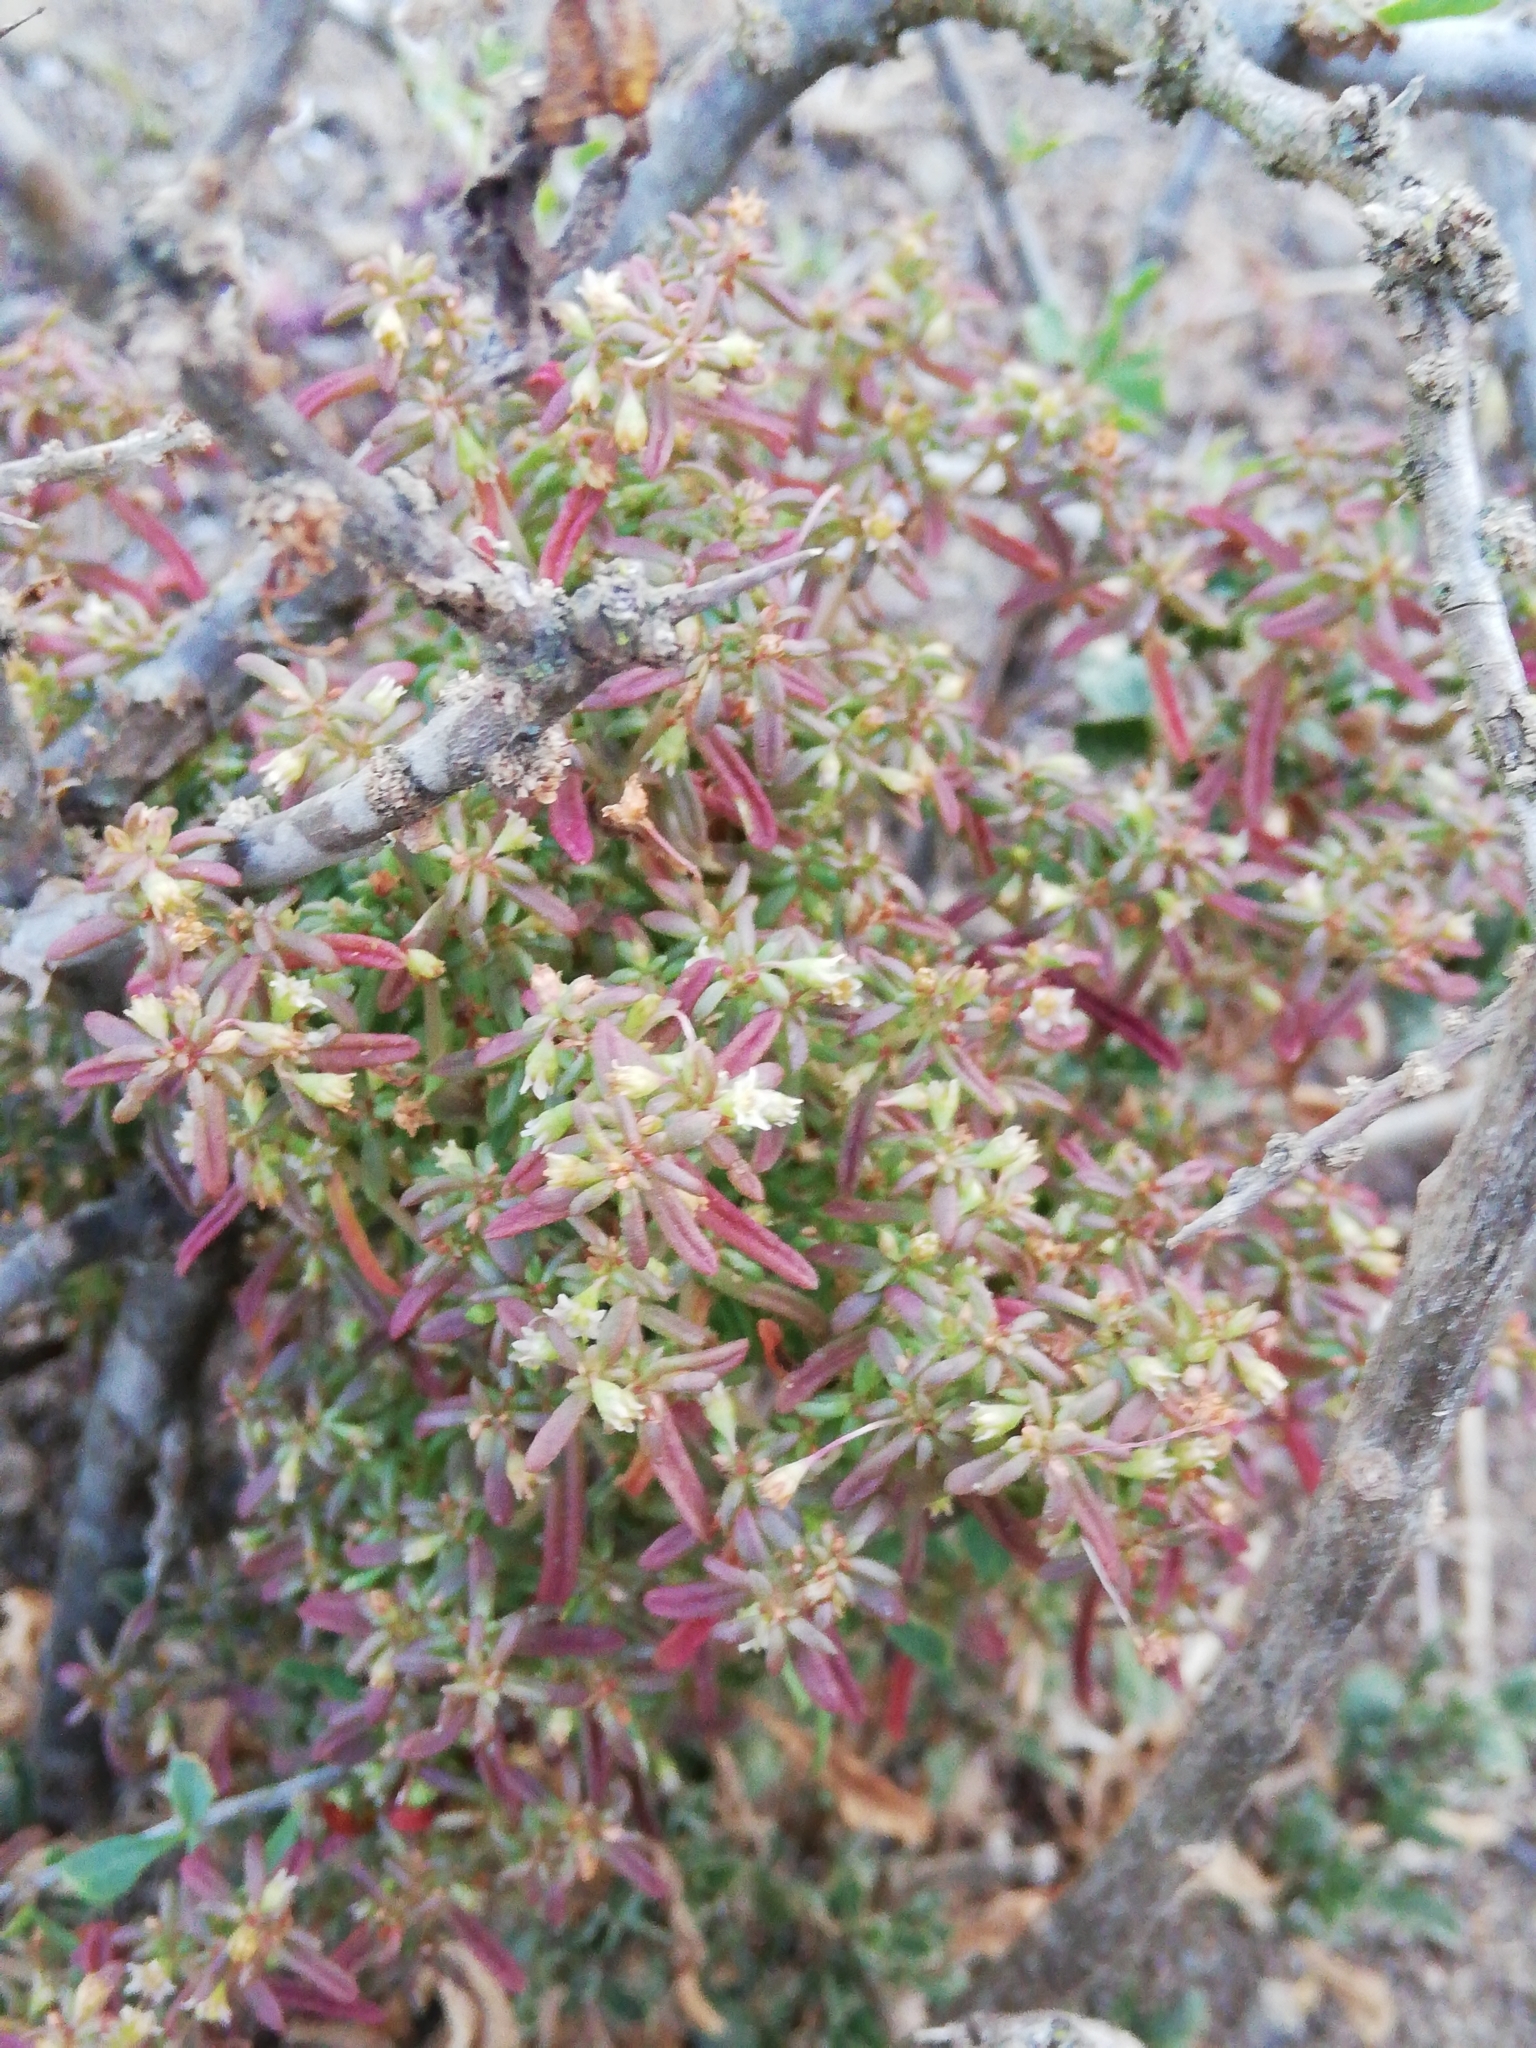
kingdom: Plantae
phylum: Tracheophyta
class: Magnoliopsida
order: Saxifragales
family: Crassulaceae
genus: Crassula
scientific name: Crassula expansa
